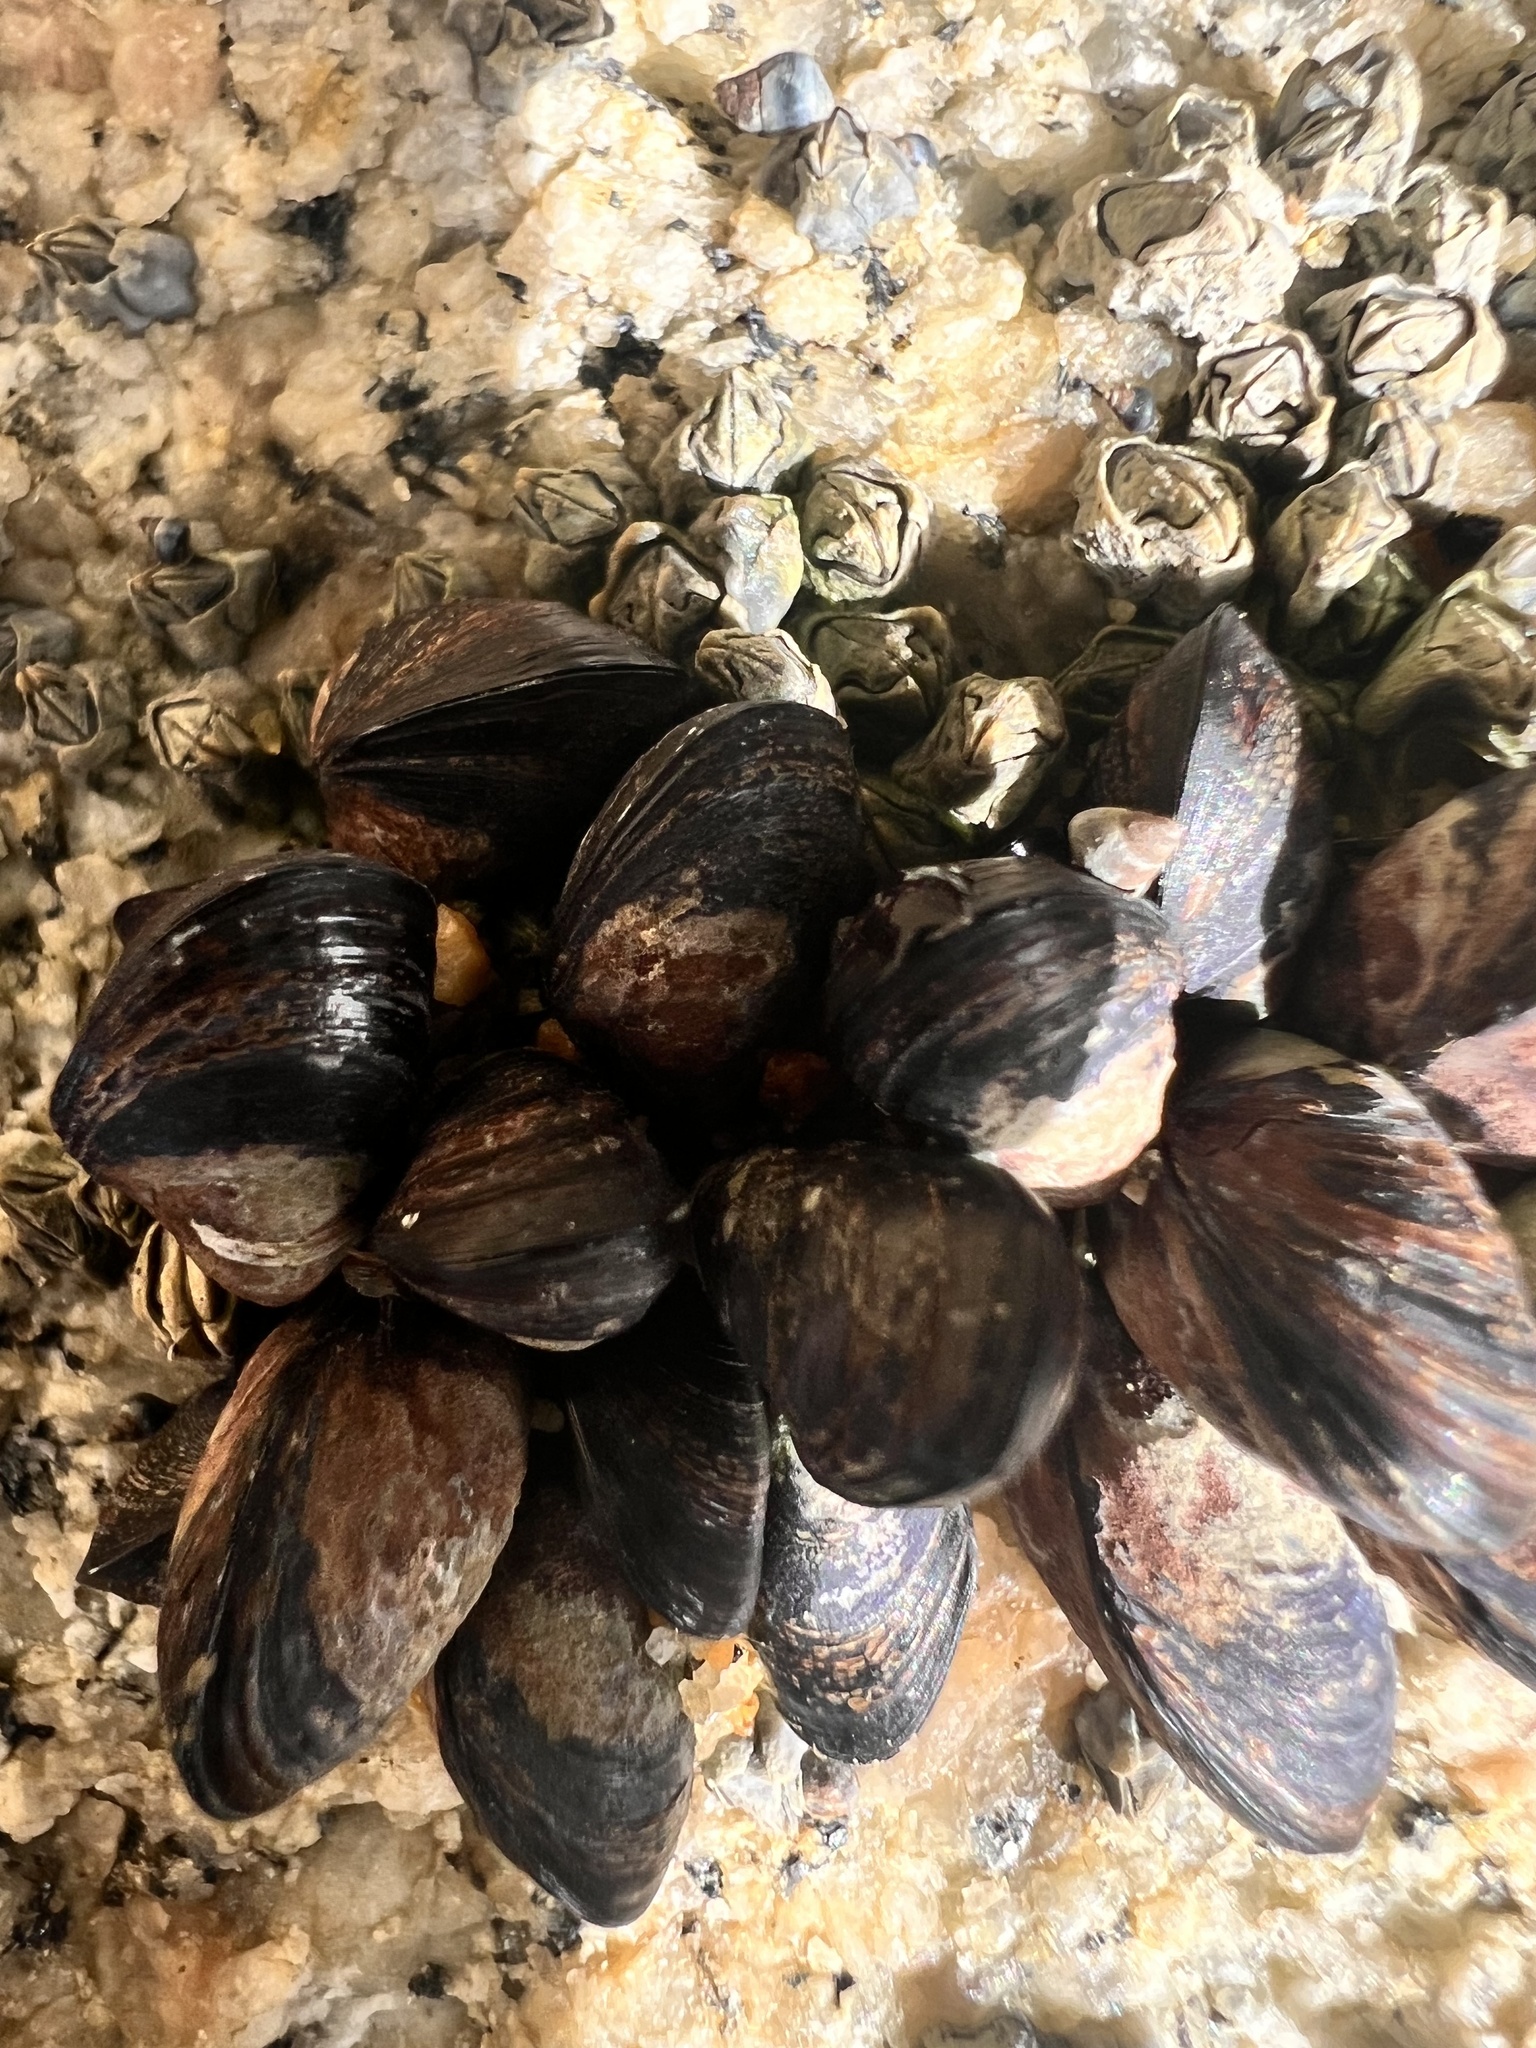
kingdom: Animalia
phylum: Mollusca
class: Bivalvia
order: Mytilida
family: Mytilidae
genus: Xenostrobus
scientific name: Xenostrobus neozelanicus
